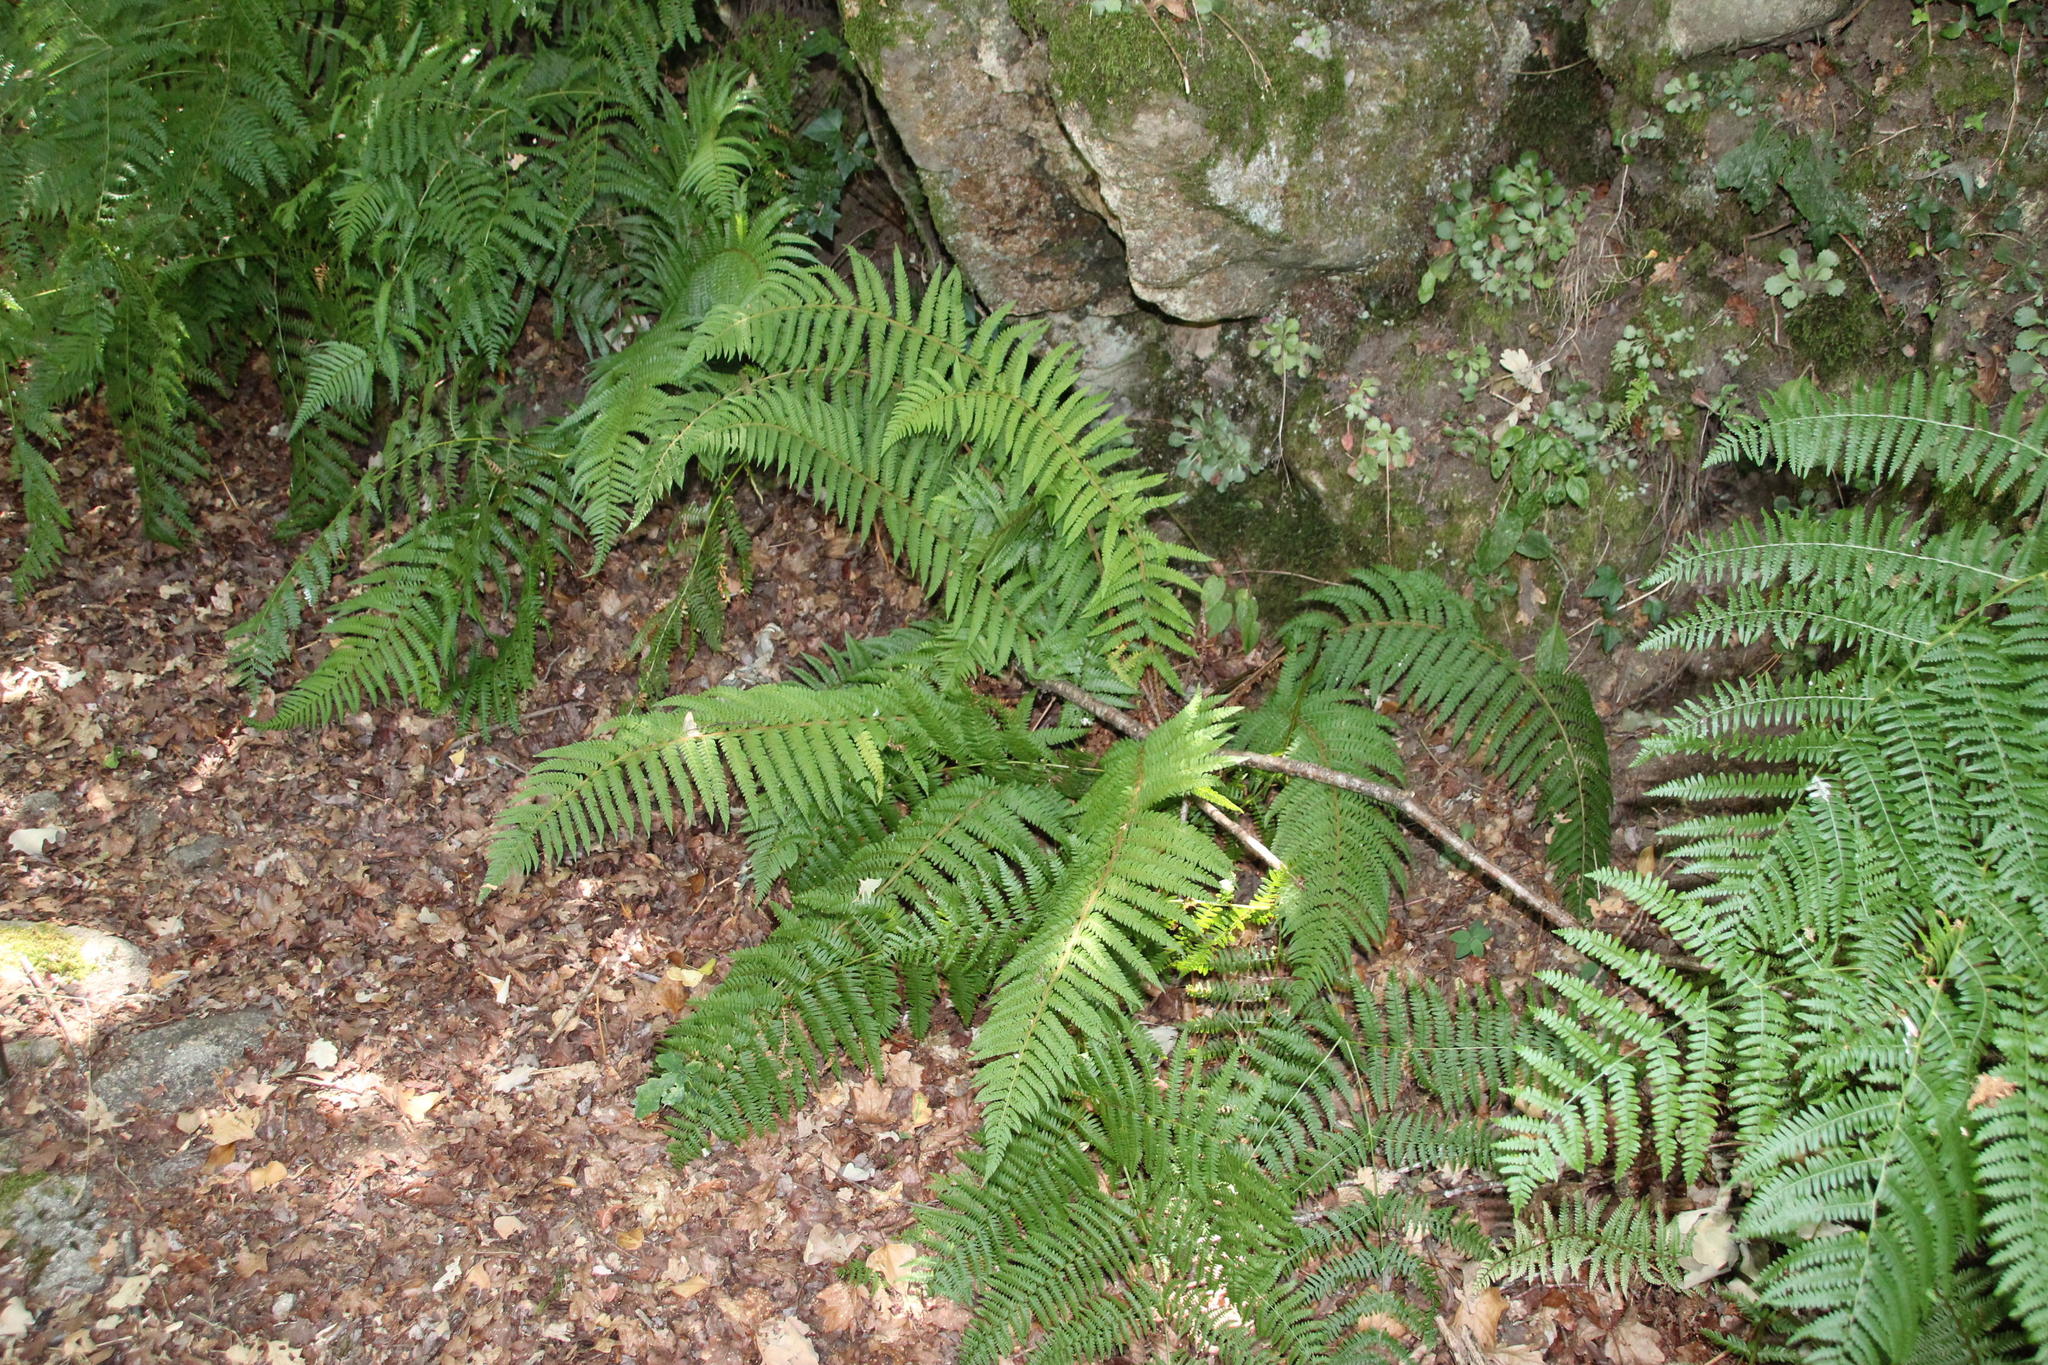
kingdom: Plantae
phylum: Tracheophyta
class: Polypodiopsida
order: Polypodiales
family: Dryopteridaceae
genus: Polystichum
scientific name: Polystichum setiferum
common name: Soft shield-fern
